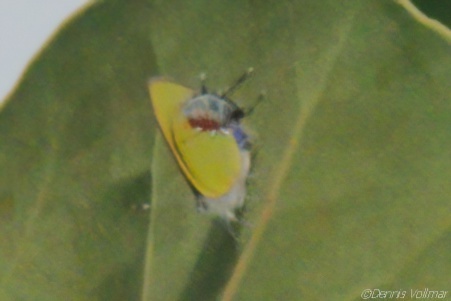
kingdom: Animalia
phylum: Arthropoda
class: Insecta
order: Lepidoptera
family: Lycaenidae
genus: Thecla
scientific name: Thecla maesites
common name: Verde azul hairstreak
